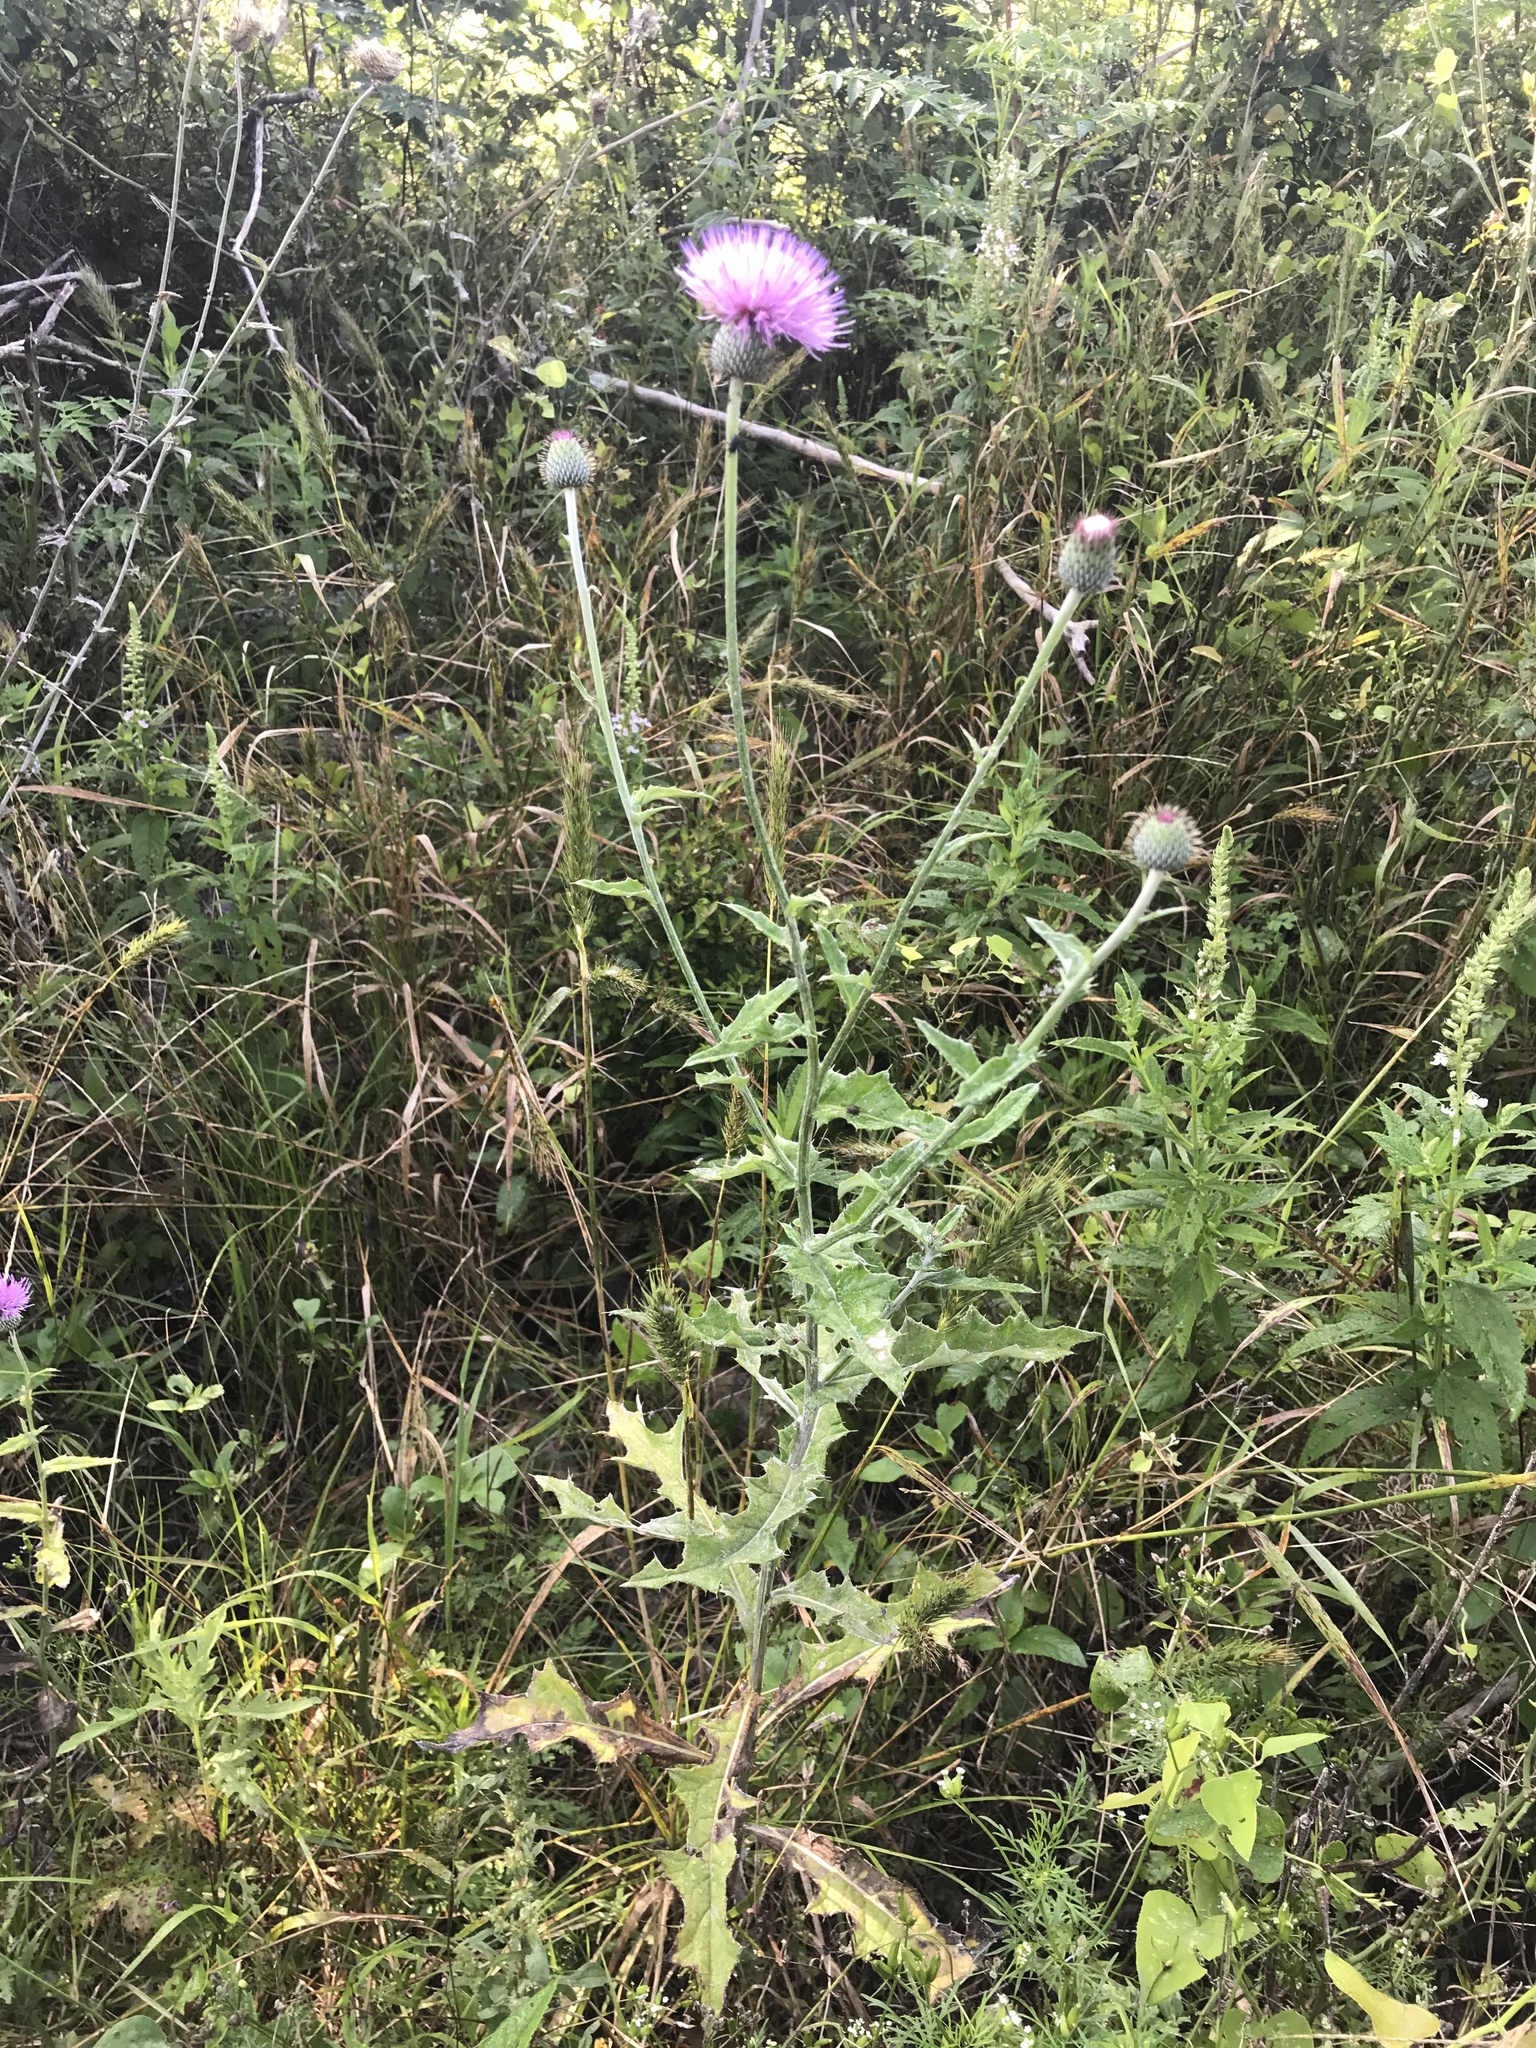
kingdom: Plantae
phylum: Tracheophyta
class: Magnoliopsida
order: Asterales
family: Asteraceae
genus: Cirsium
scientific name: Cirsium texanum
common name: Texas purple thistle
